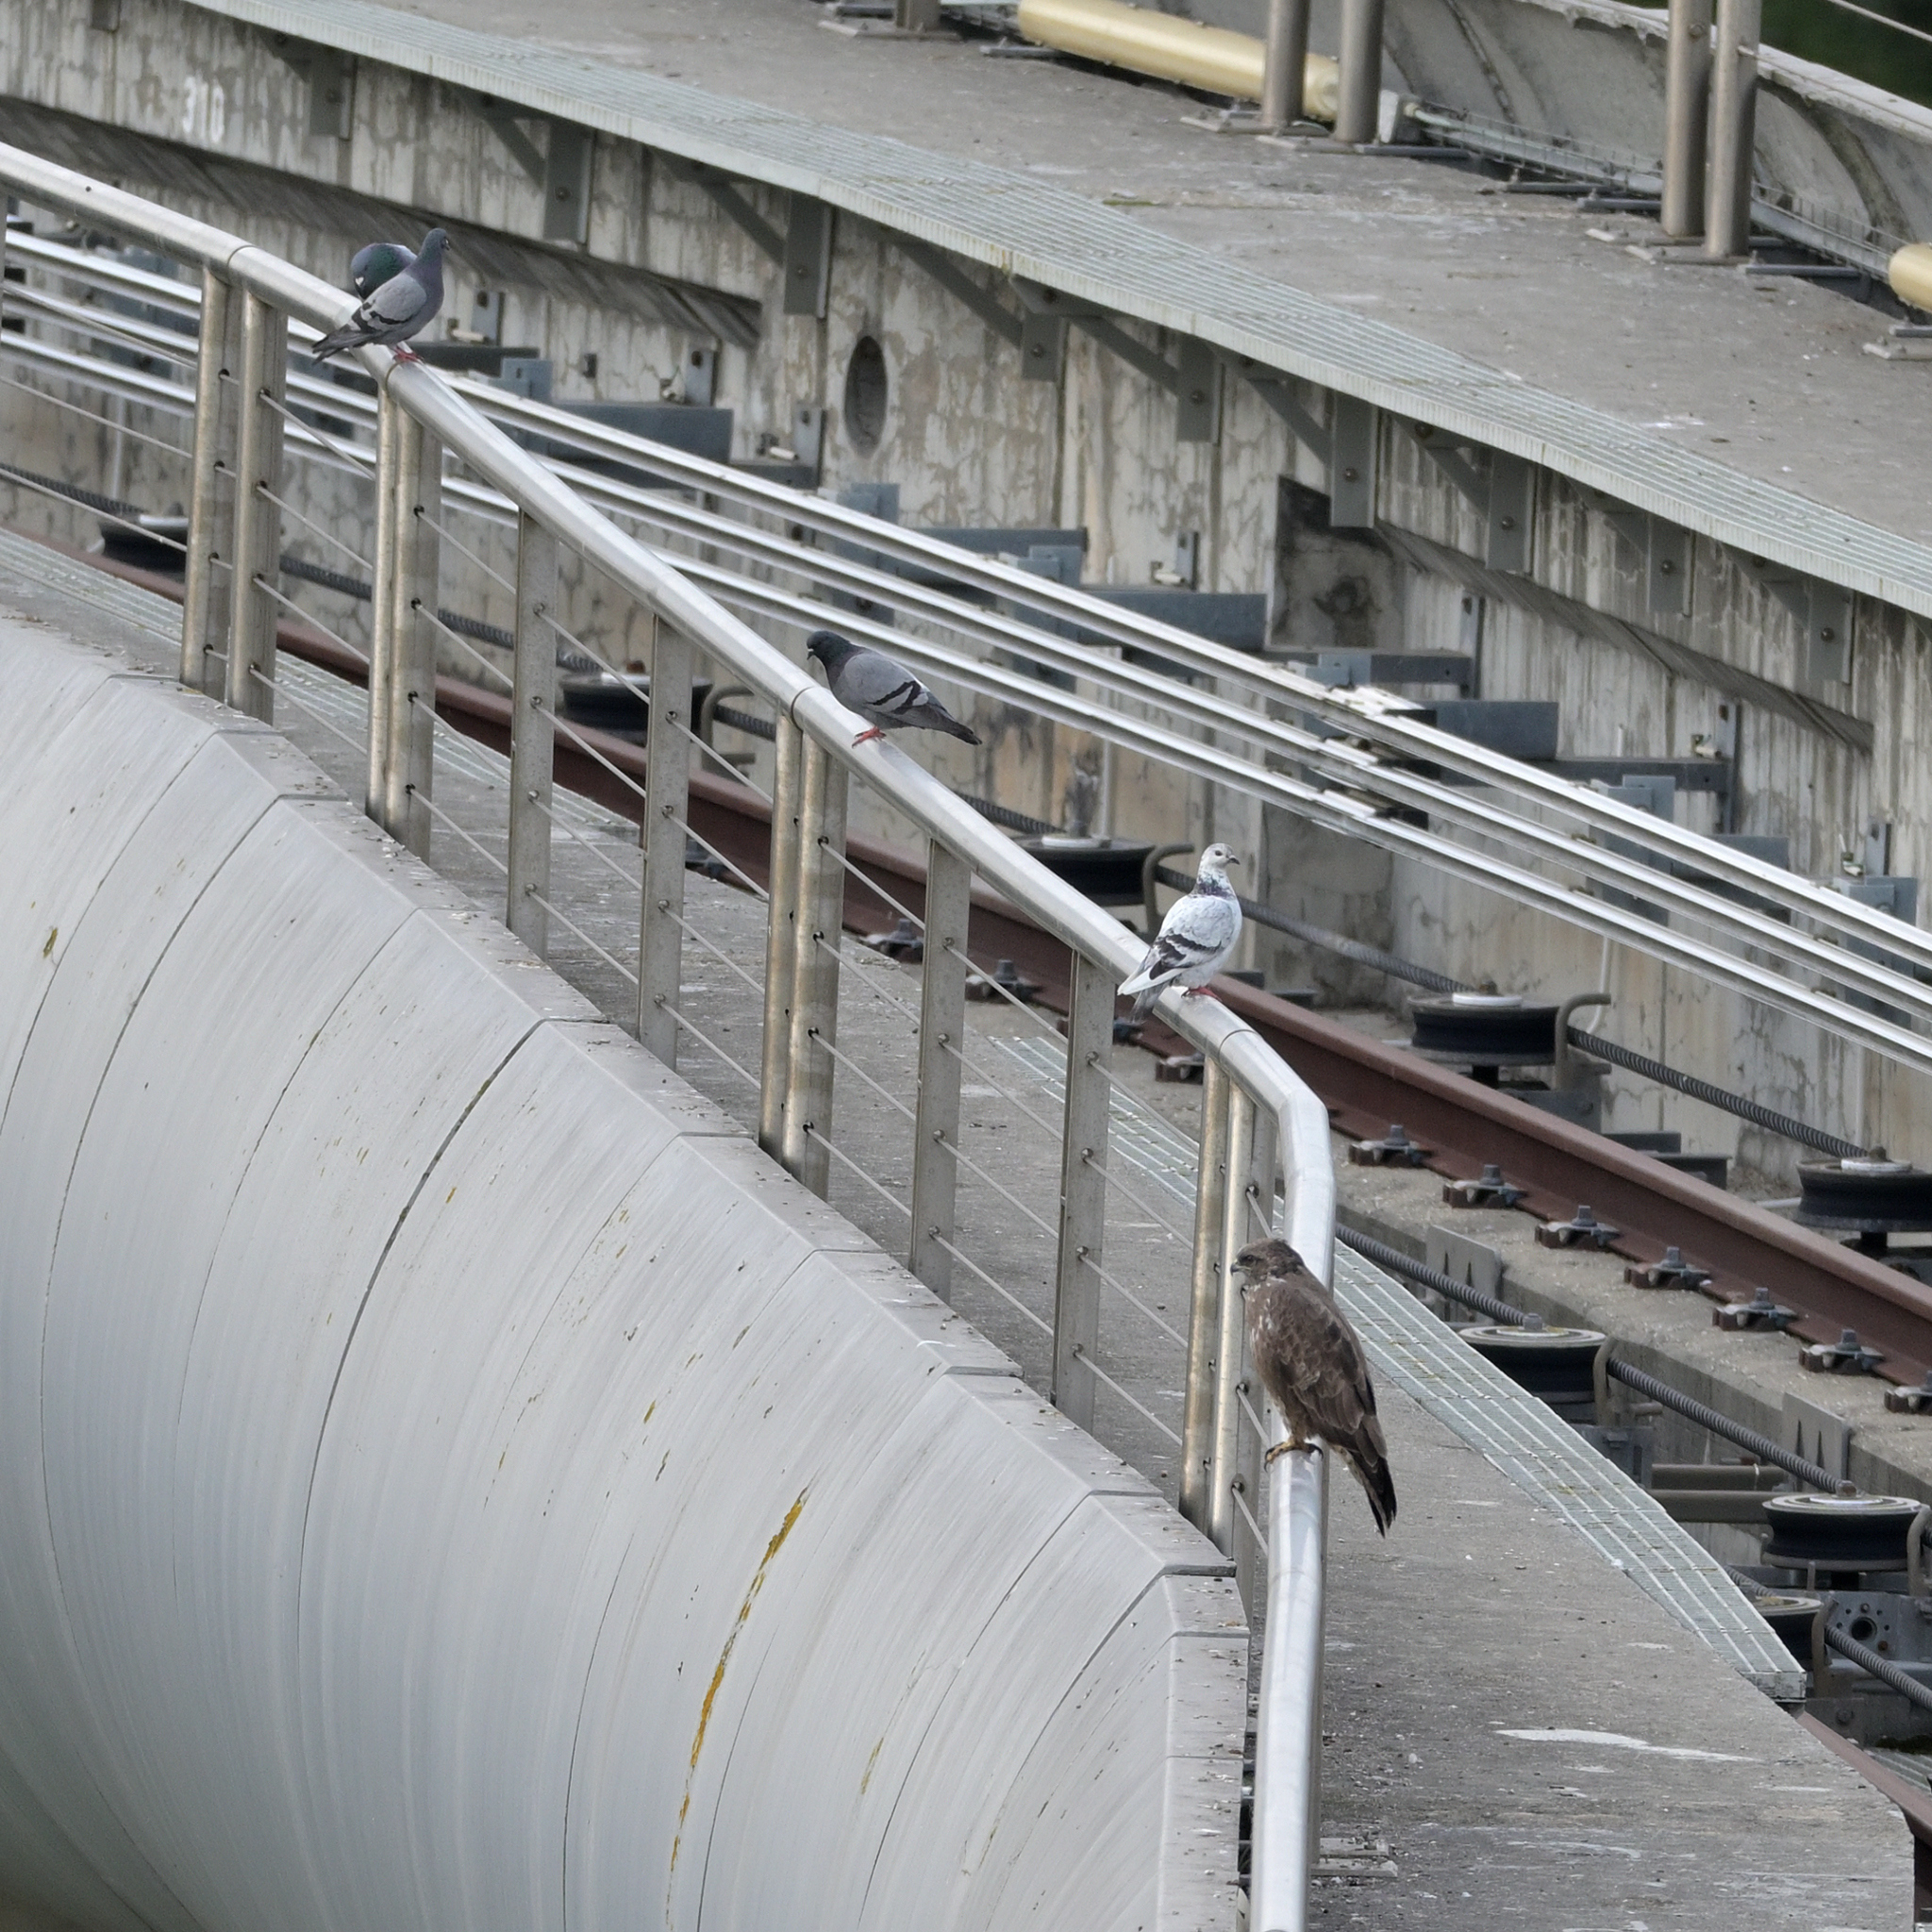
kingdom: Animalia
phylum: Chordata
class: Aves
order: Accipitriformes
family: Accipitridae
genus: Buteo
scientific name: Buteo buteo
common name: Common buzzard
